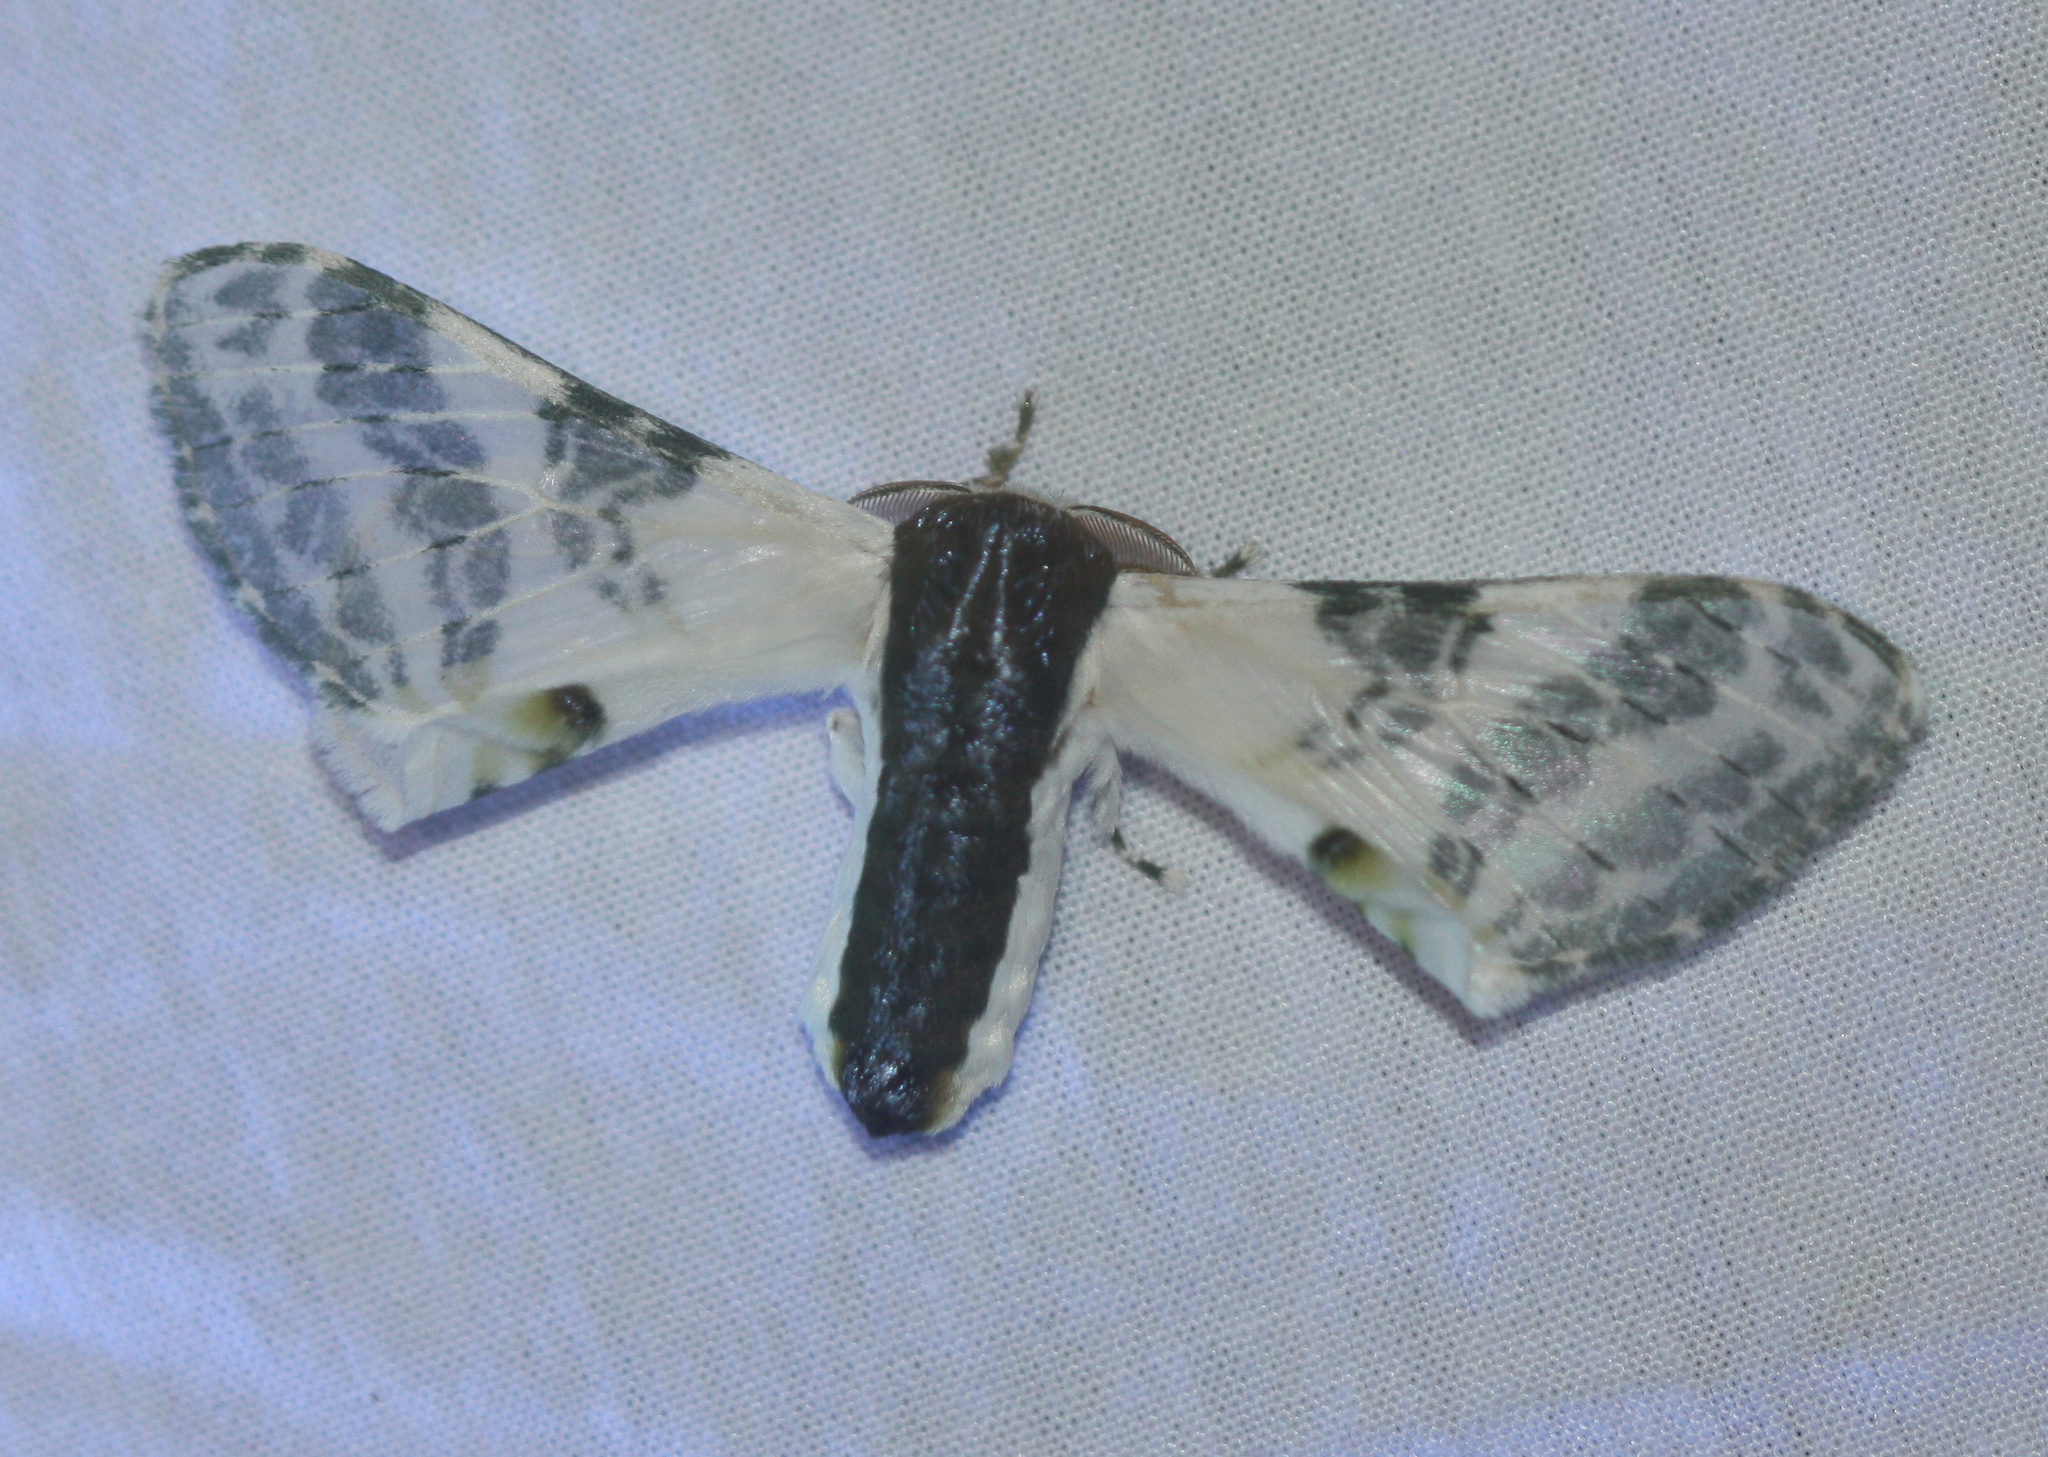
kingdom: Animalia
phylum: Arthropoda
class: Insecta
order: Lepidoptera
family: Bombycidae
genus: Colla
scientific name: Colla rhodope
